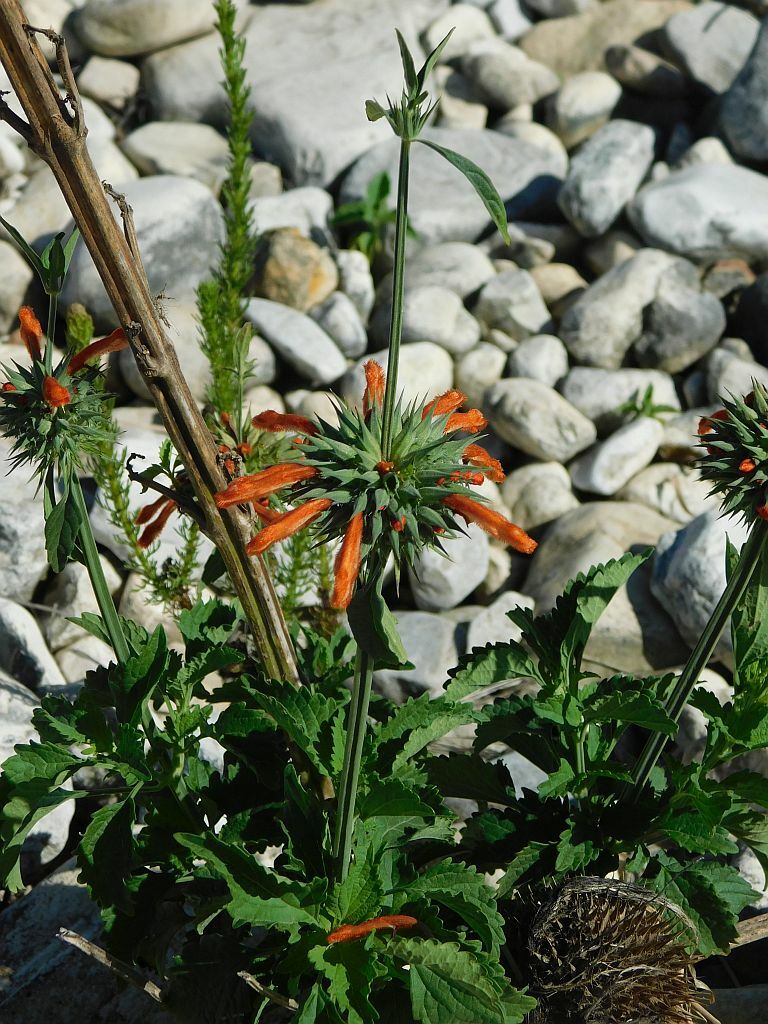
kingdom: Plantae
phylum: Tracheophyta
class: Magnoliopsida
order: Lamiales
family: Lamiaceae
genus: Leonotis
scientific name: Leonotis nepetifolia
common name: Christmas candlestick
